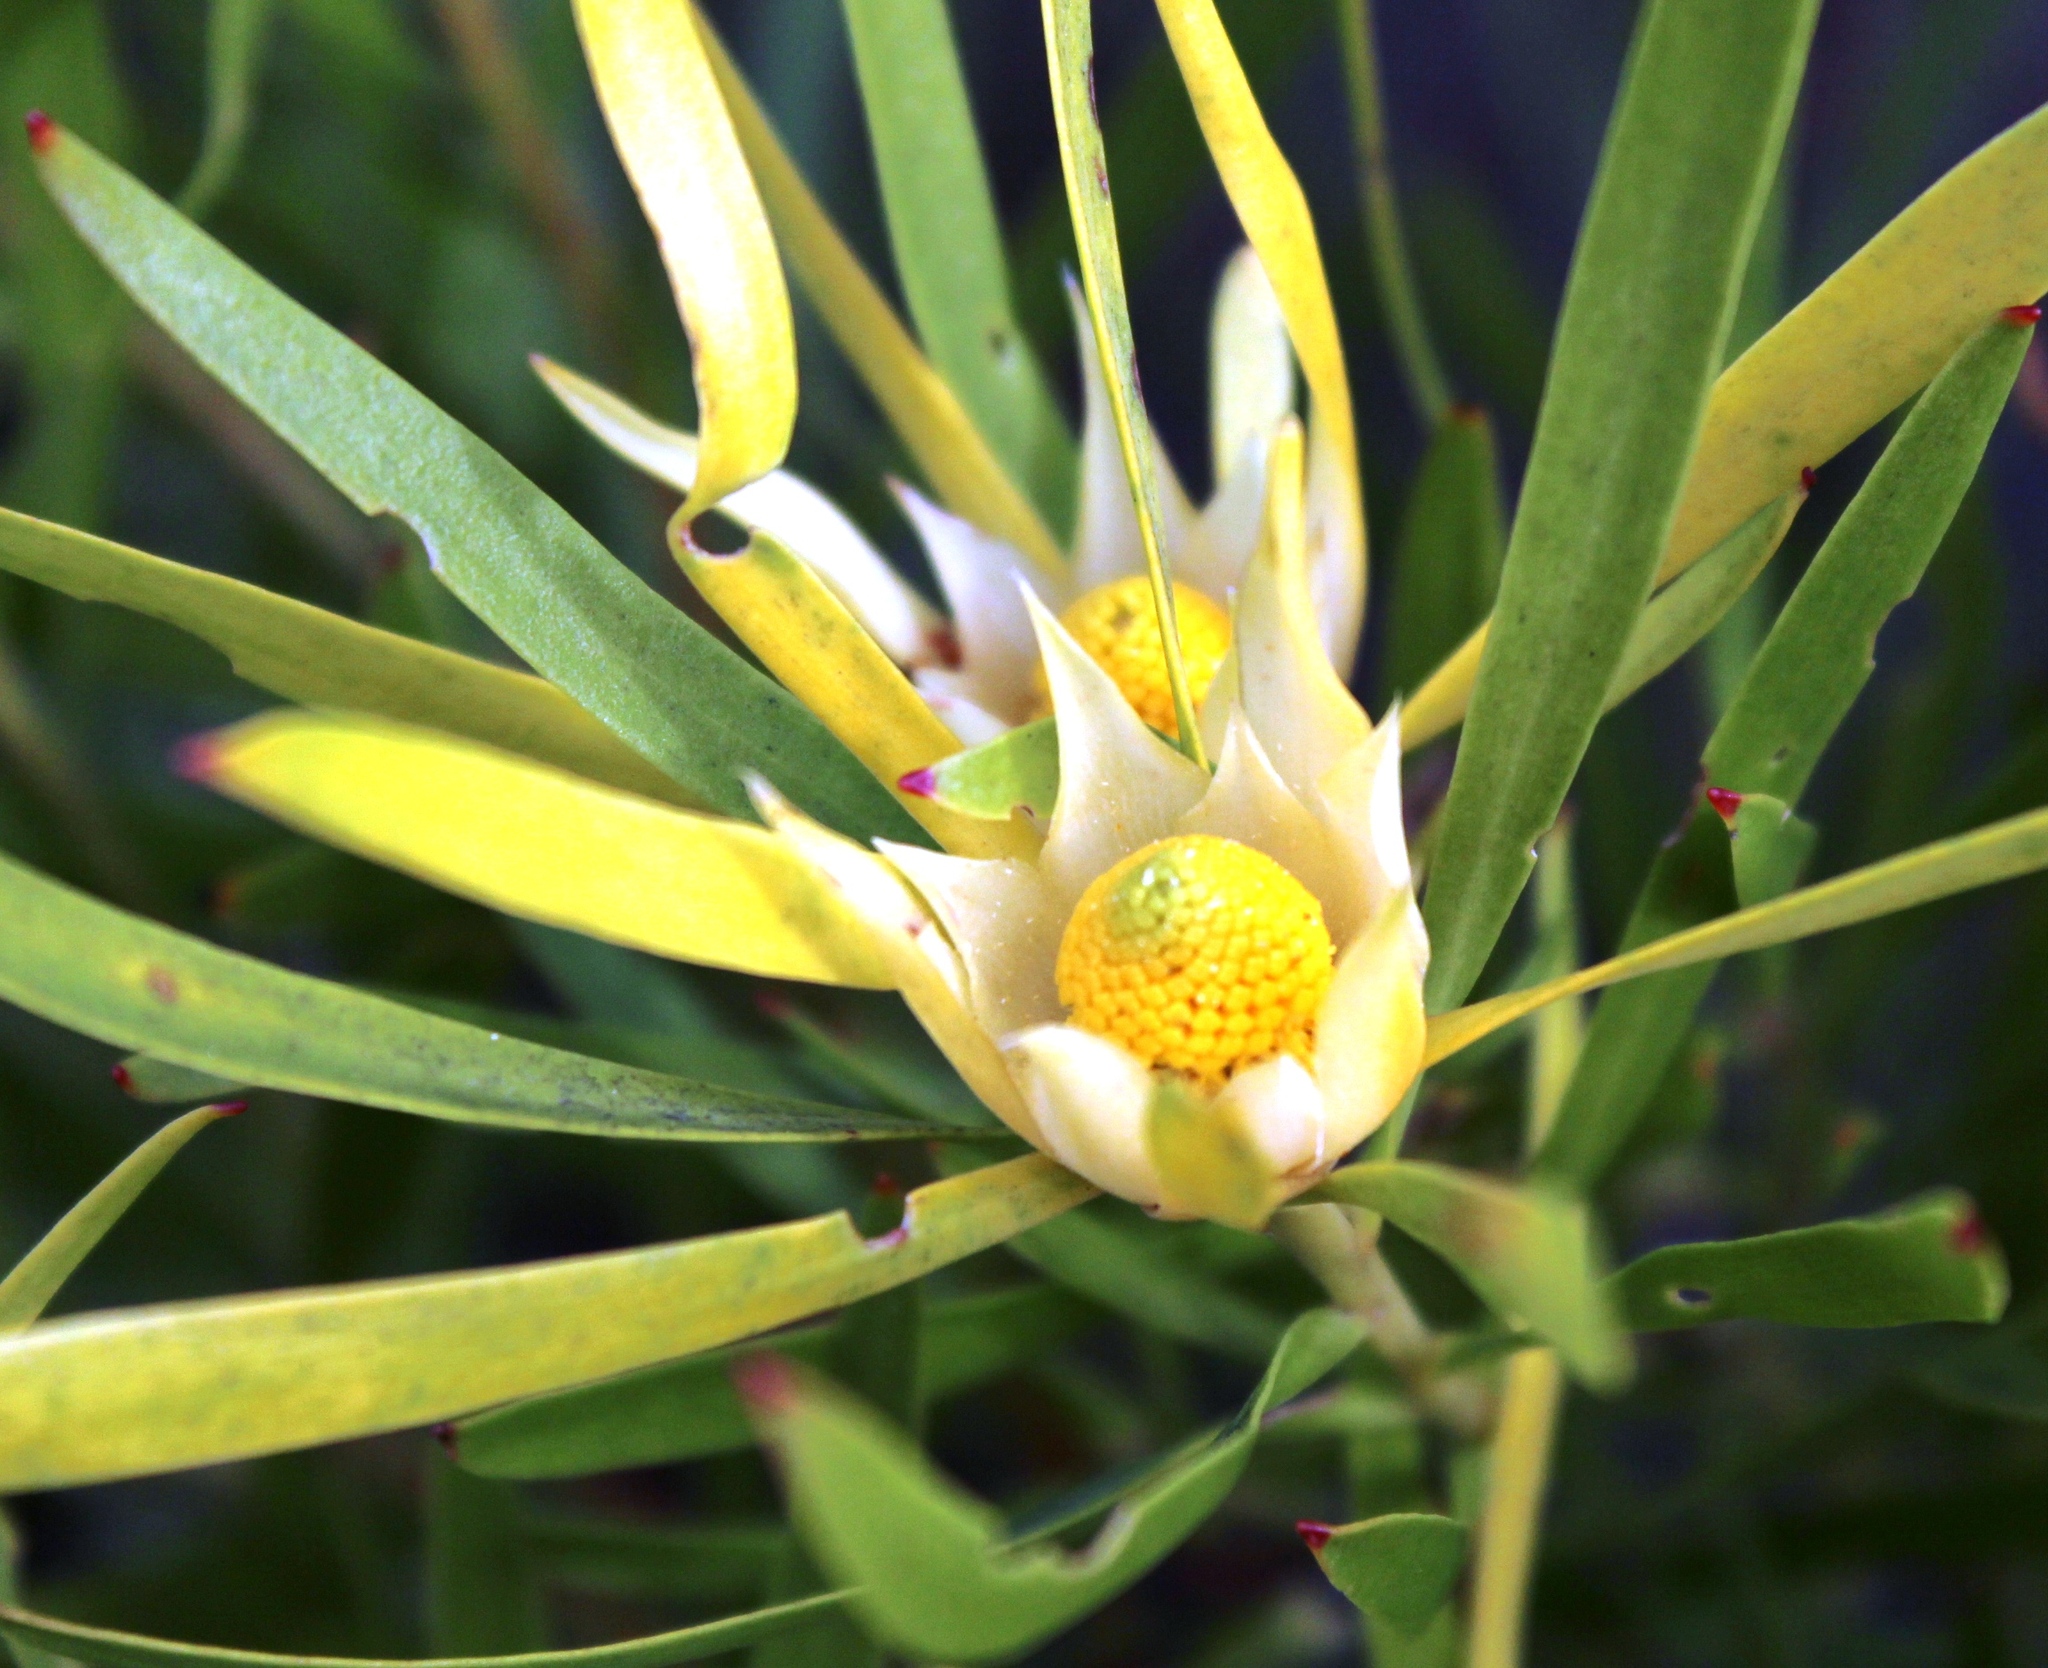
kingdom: Plantae
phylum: Tracheophyta
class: Magnoliopsida
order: Proteales
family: Proteaceae
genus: Leucadendron
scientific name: Leucadendron eucalyptifolium
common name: Gum-leaved conebush
